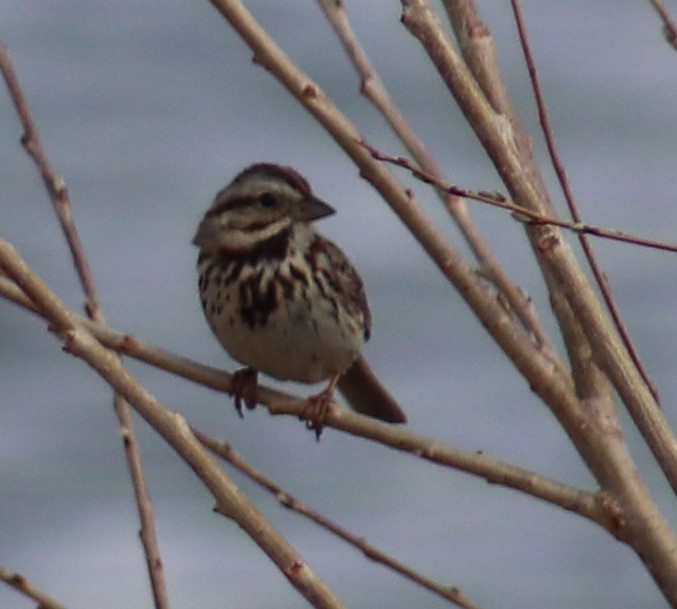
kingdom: Animalia
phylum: Chordata
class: Aves
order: Passeriformes
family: Passerellidae
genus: Melospiza
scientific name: Melospiza melodia
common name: Song sparrow
